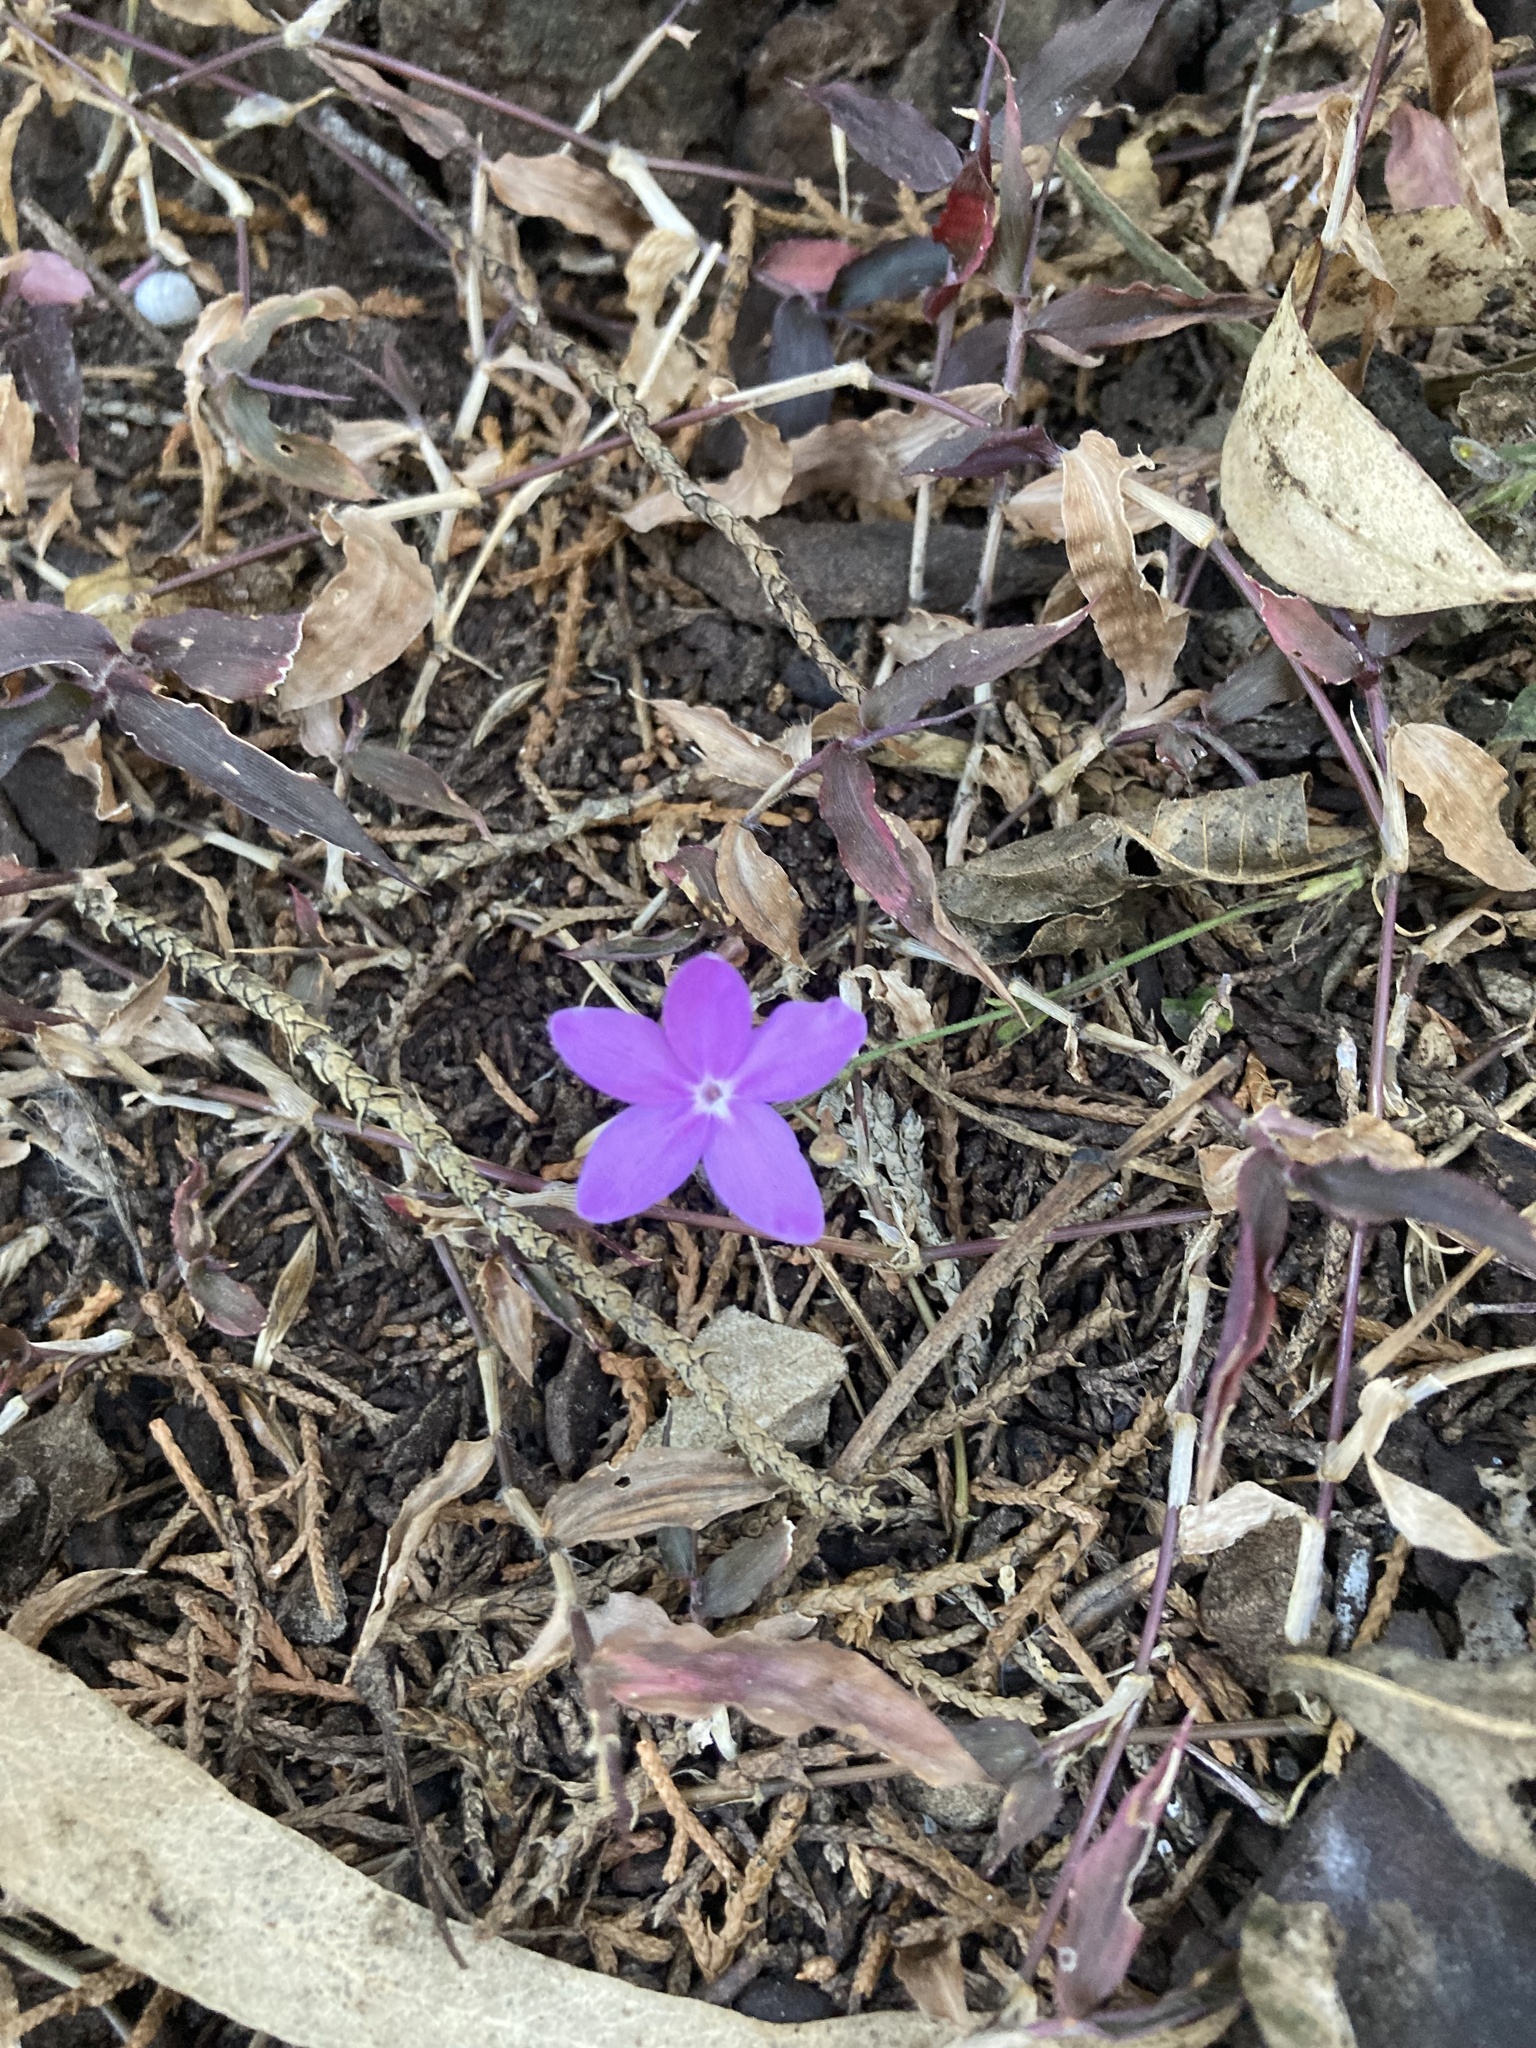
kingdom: Plantae
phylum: Tracheophyta
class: Magnoliopsida
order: Lamiales
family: Acanthaceae
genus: Pseuderanthemum
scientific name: Pseuderanthemum praecox
